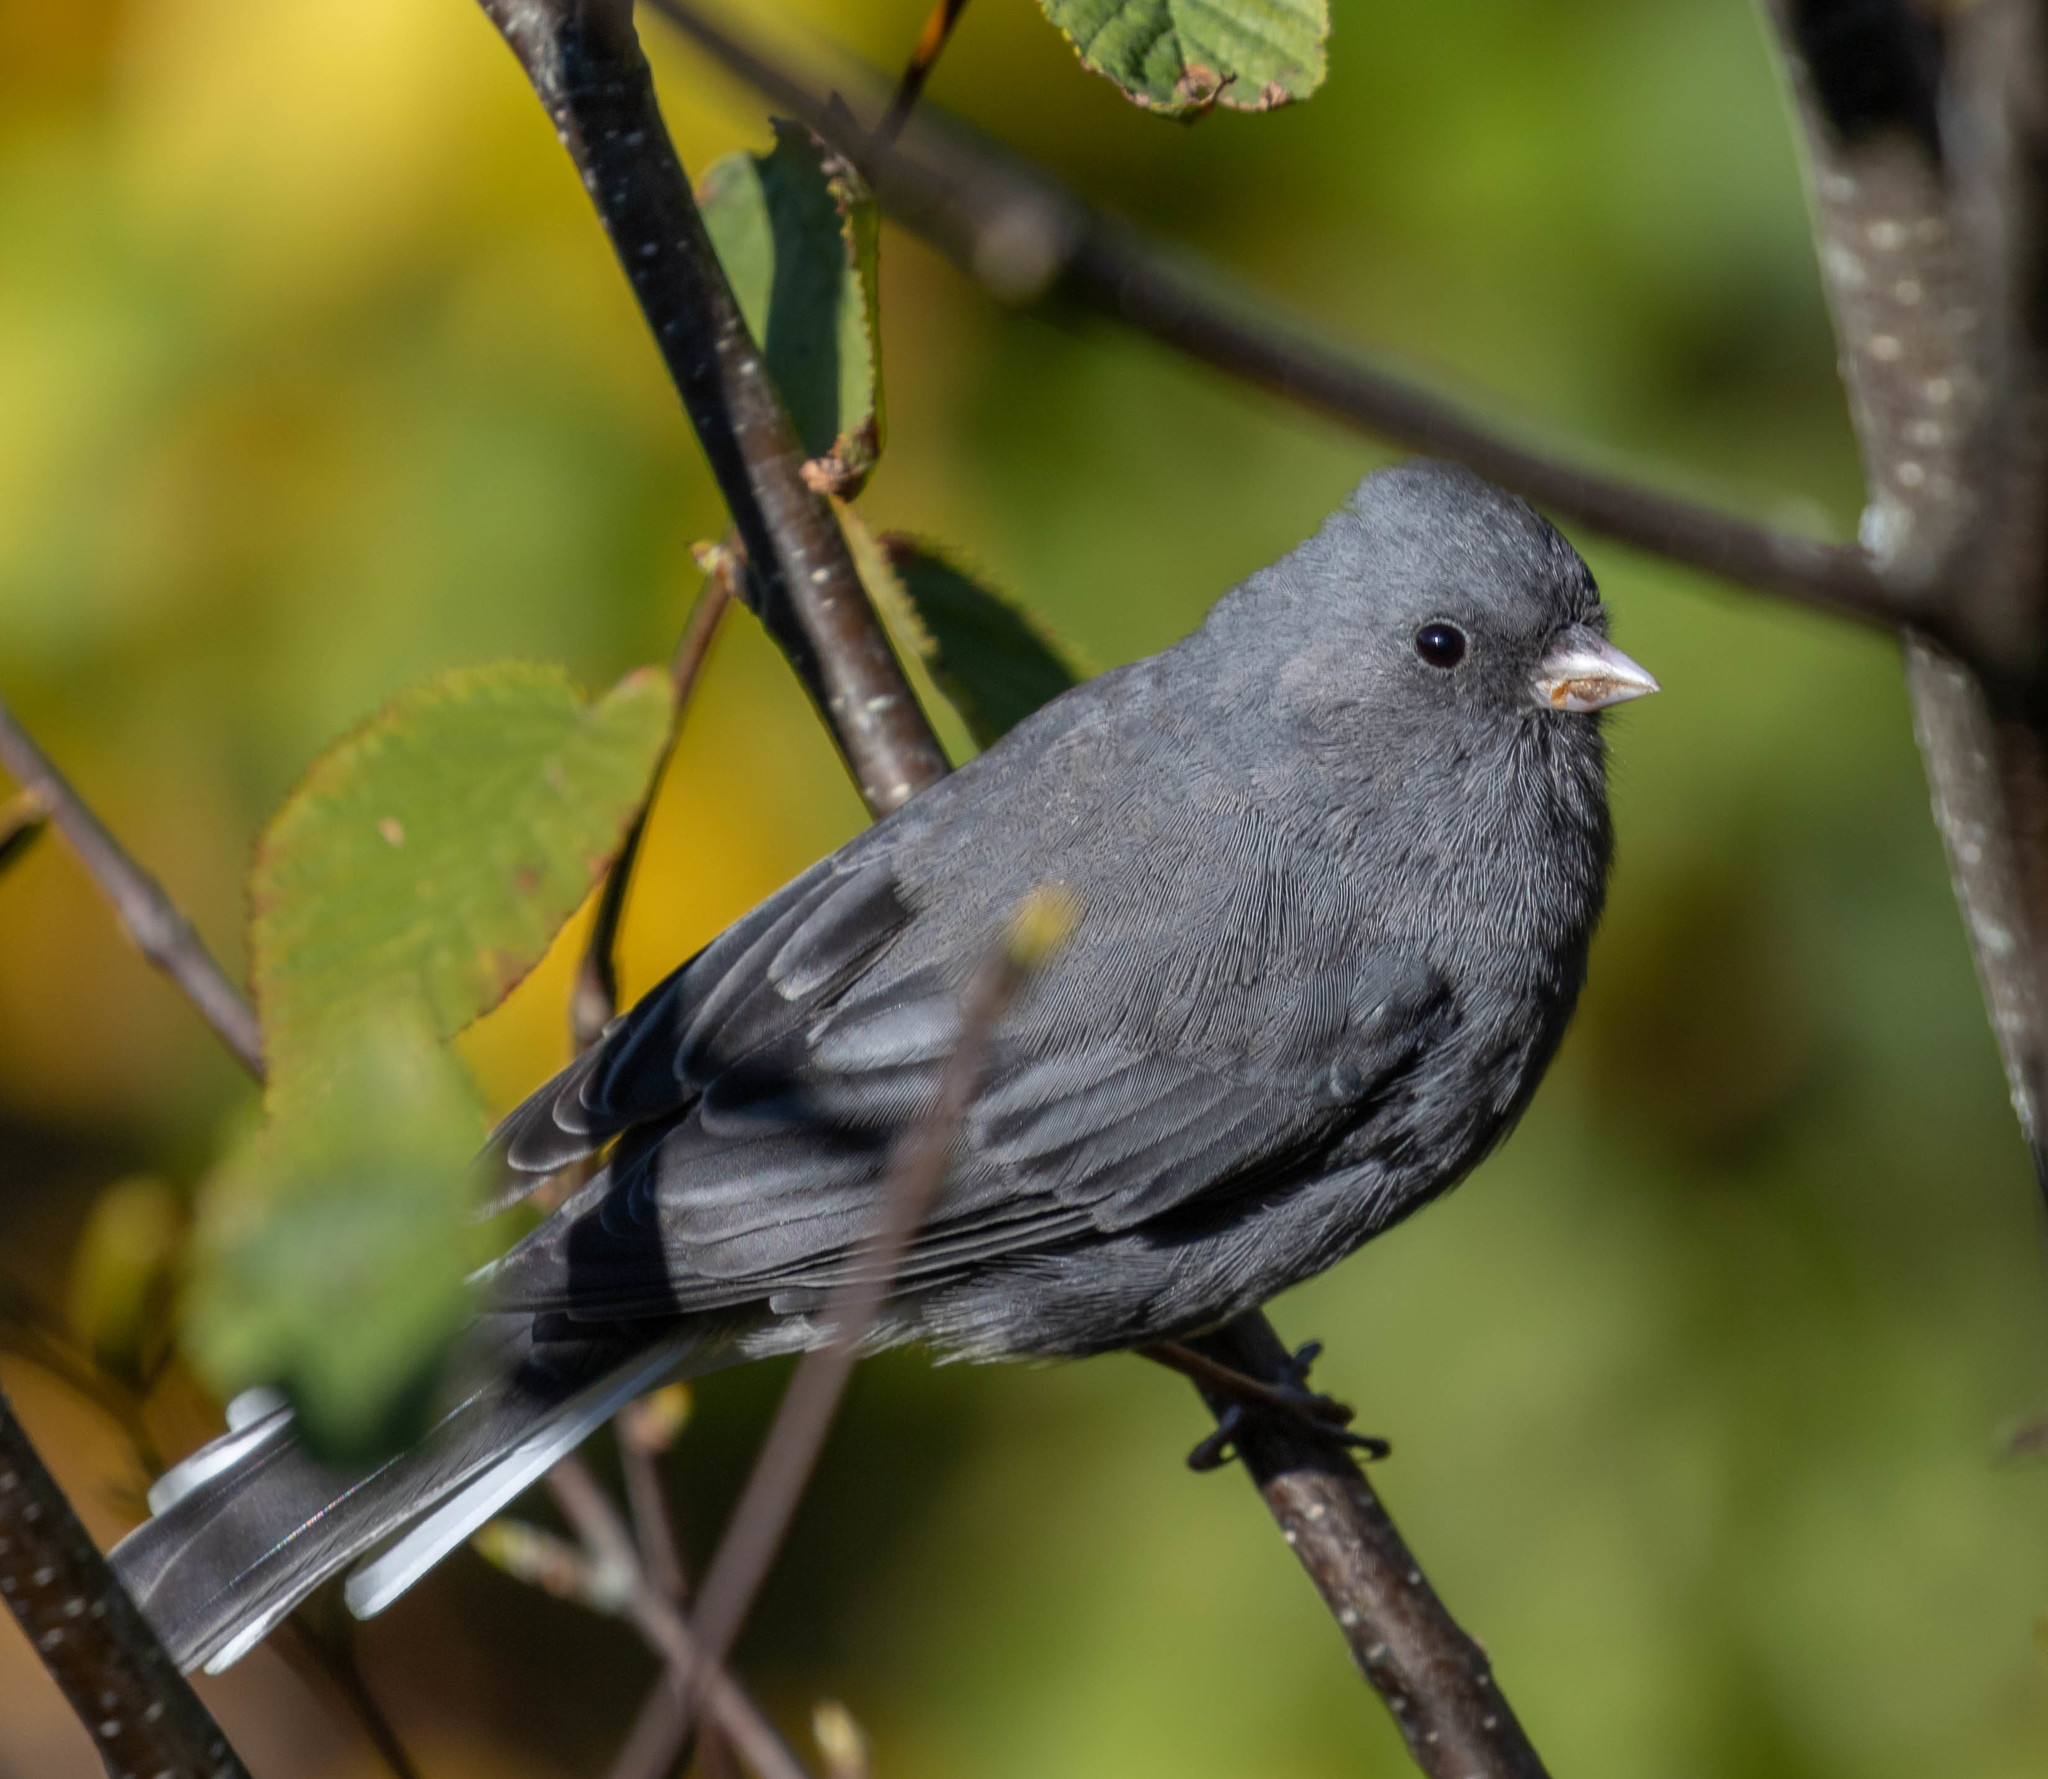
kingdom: Animalia
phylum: Chordata
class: Aves
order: Passeriformes
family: Passerellidae
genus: Junco
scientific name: Junco hyemalis
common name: Dark-eyed junco
